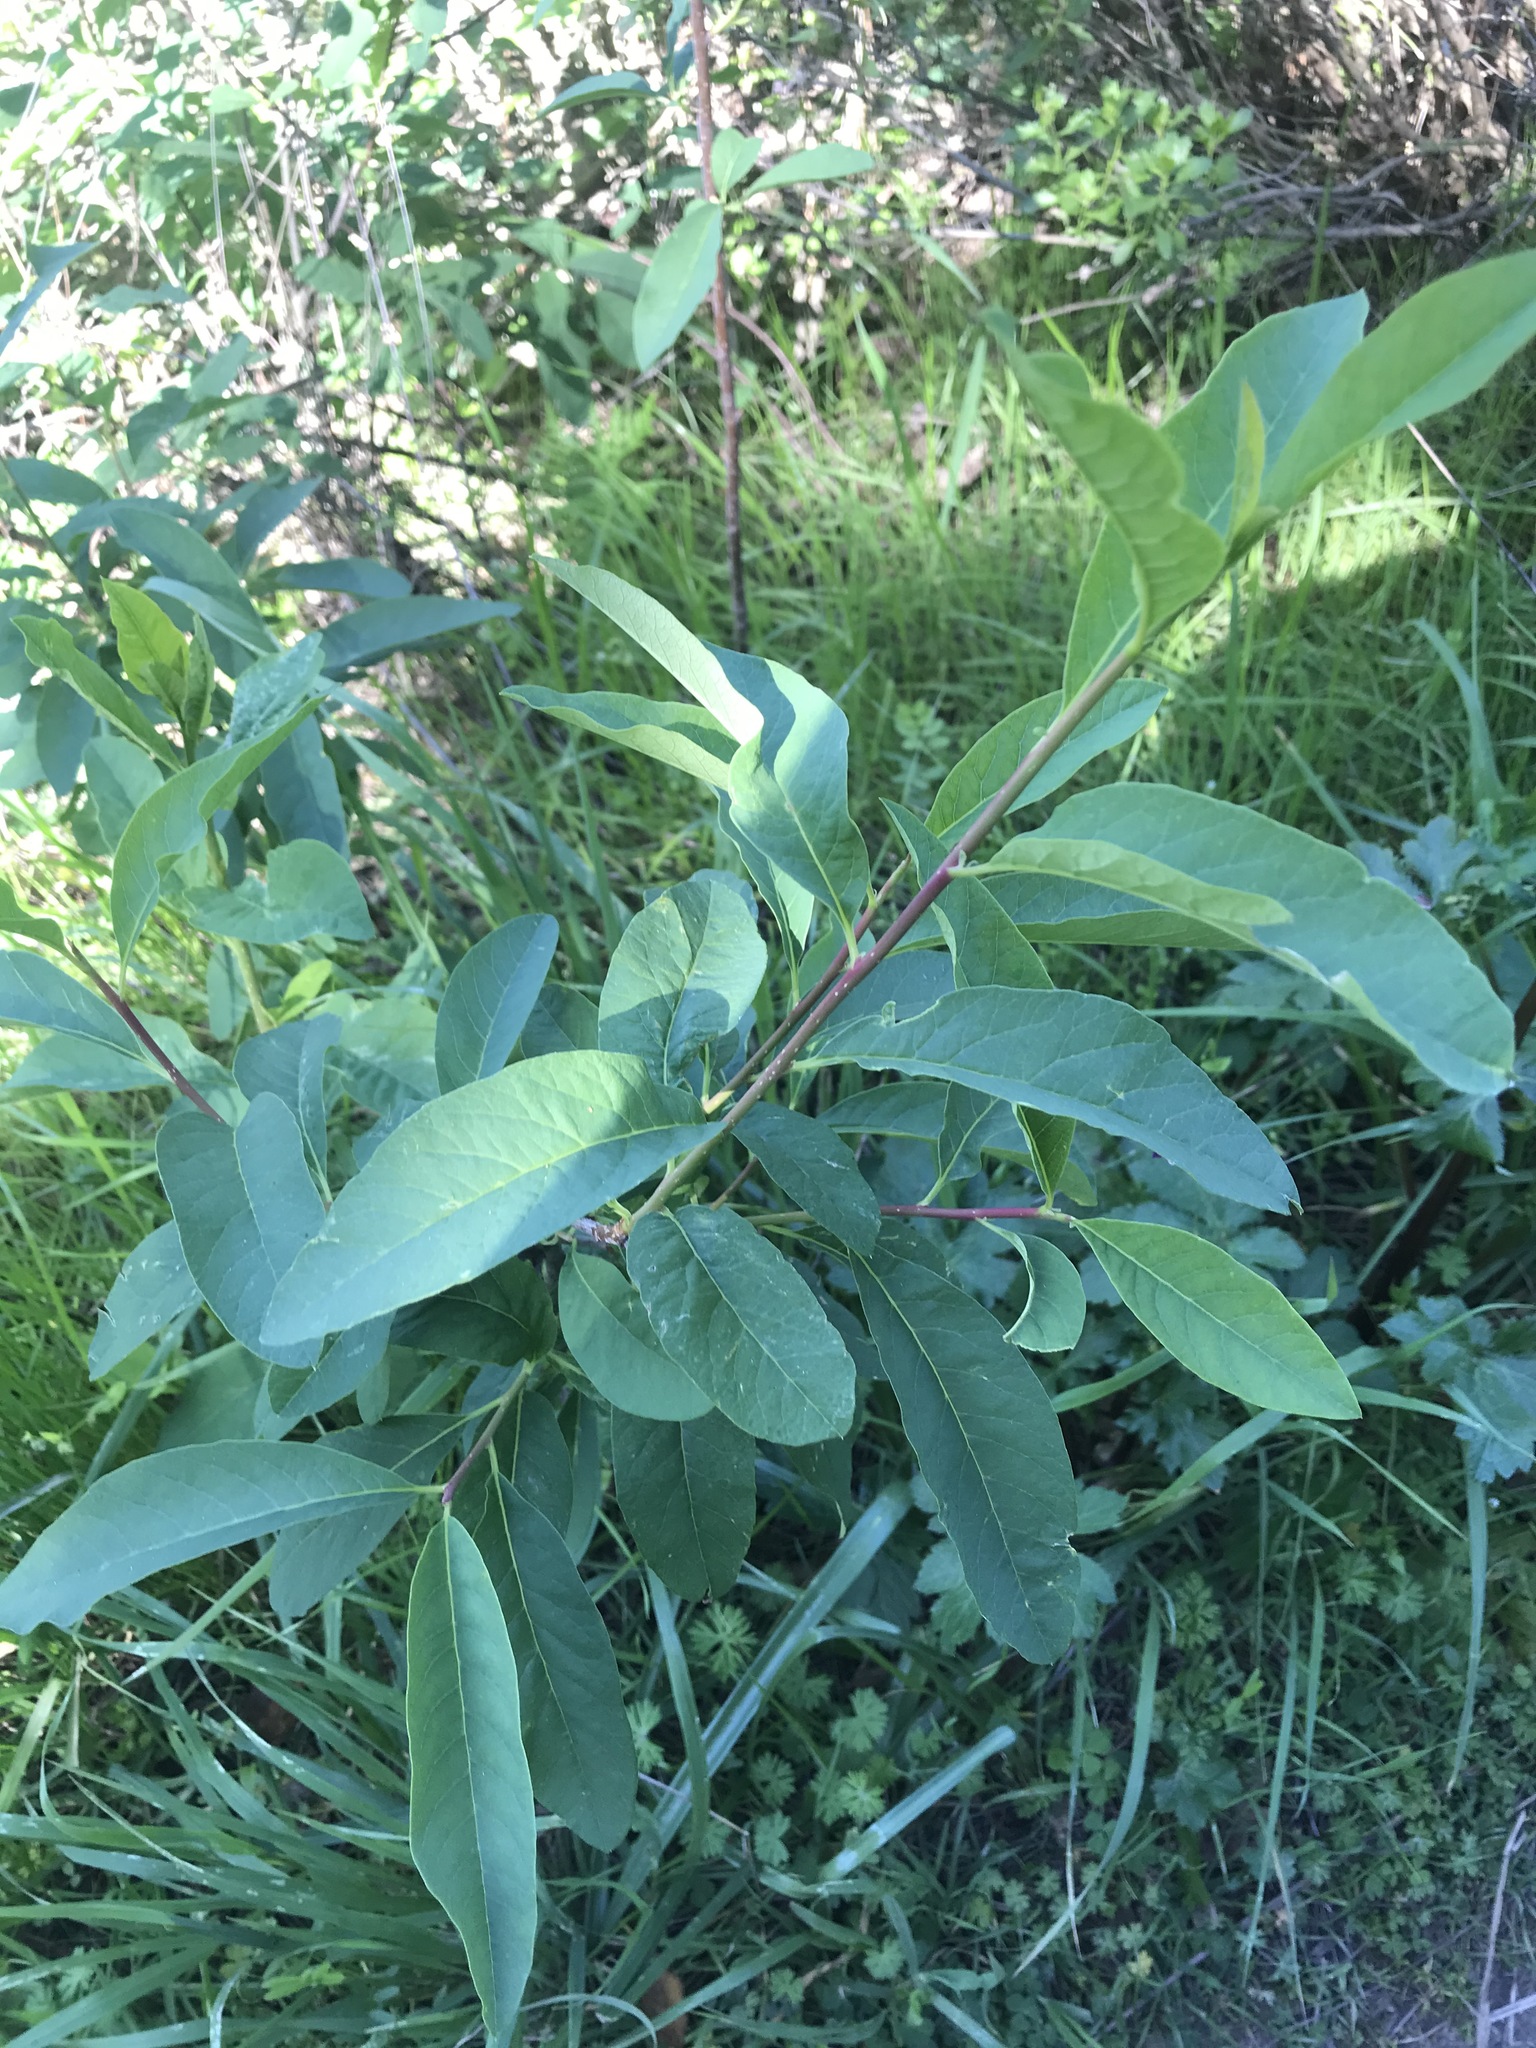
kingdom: Plantae
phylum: Tracheophyta
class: Magnoliopsida
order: Rosales
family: Rosaceae
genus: Oemleria
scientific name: Oemleria cerasiformis
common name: Osoberry
